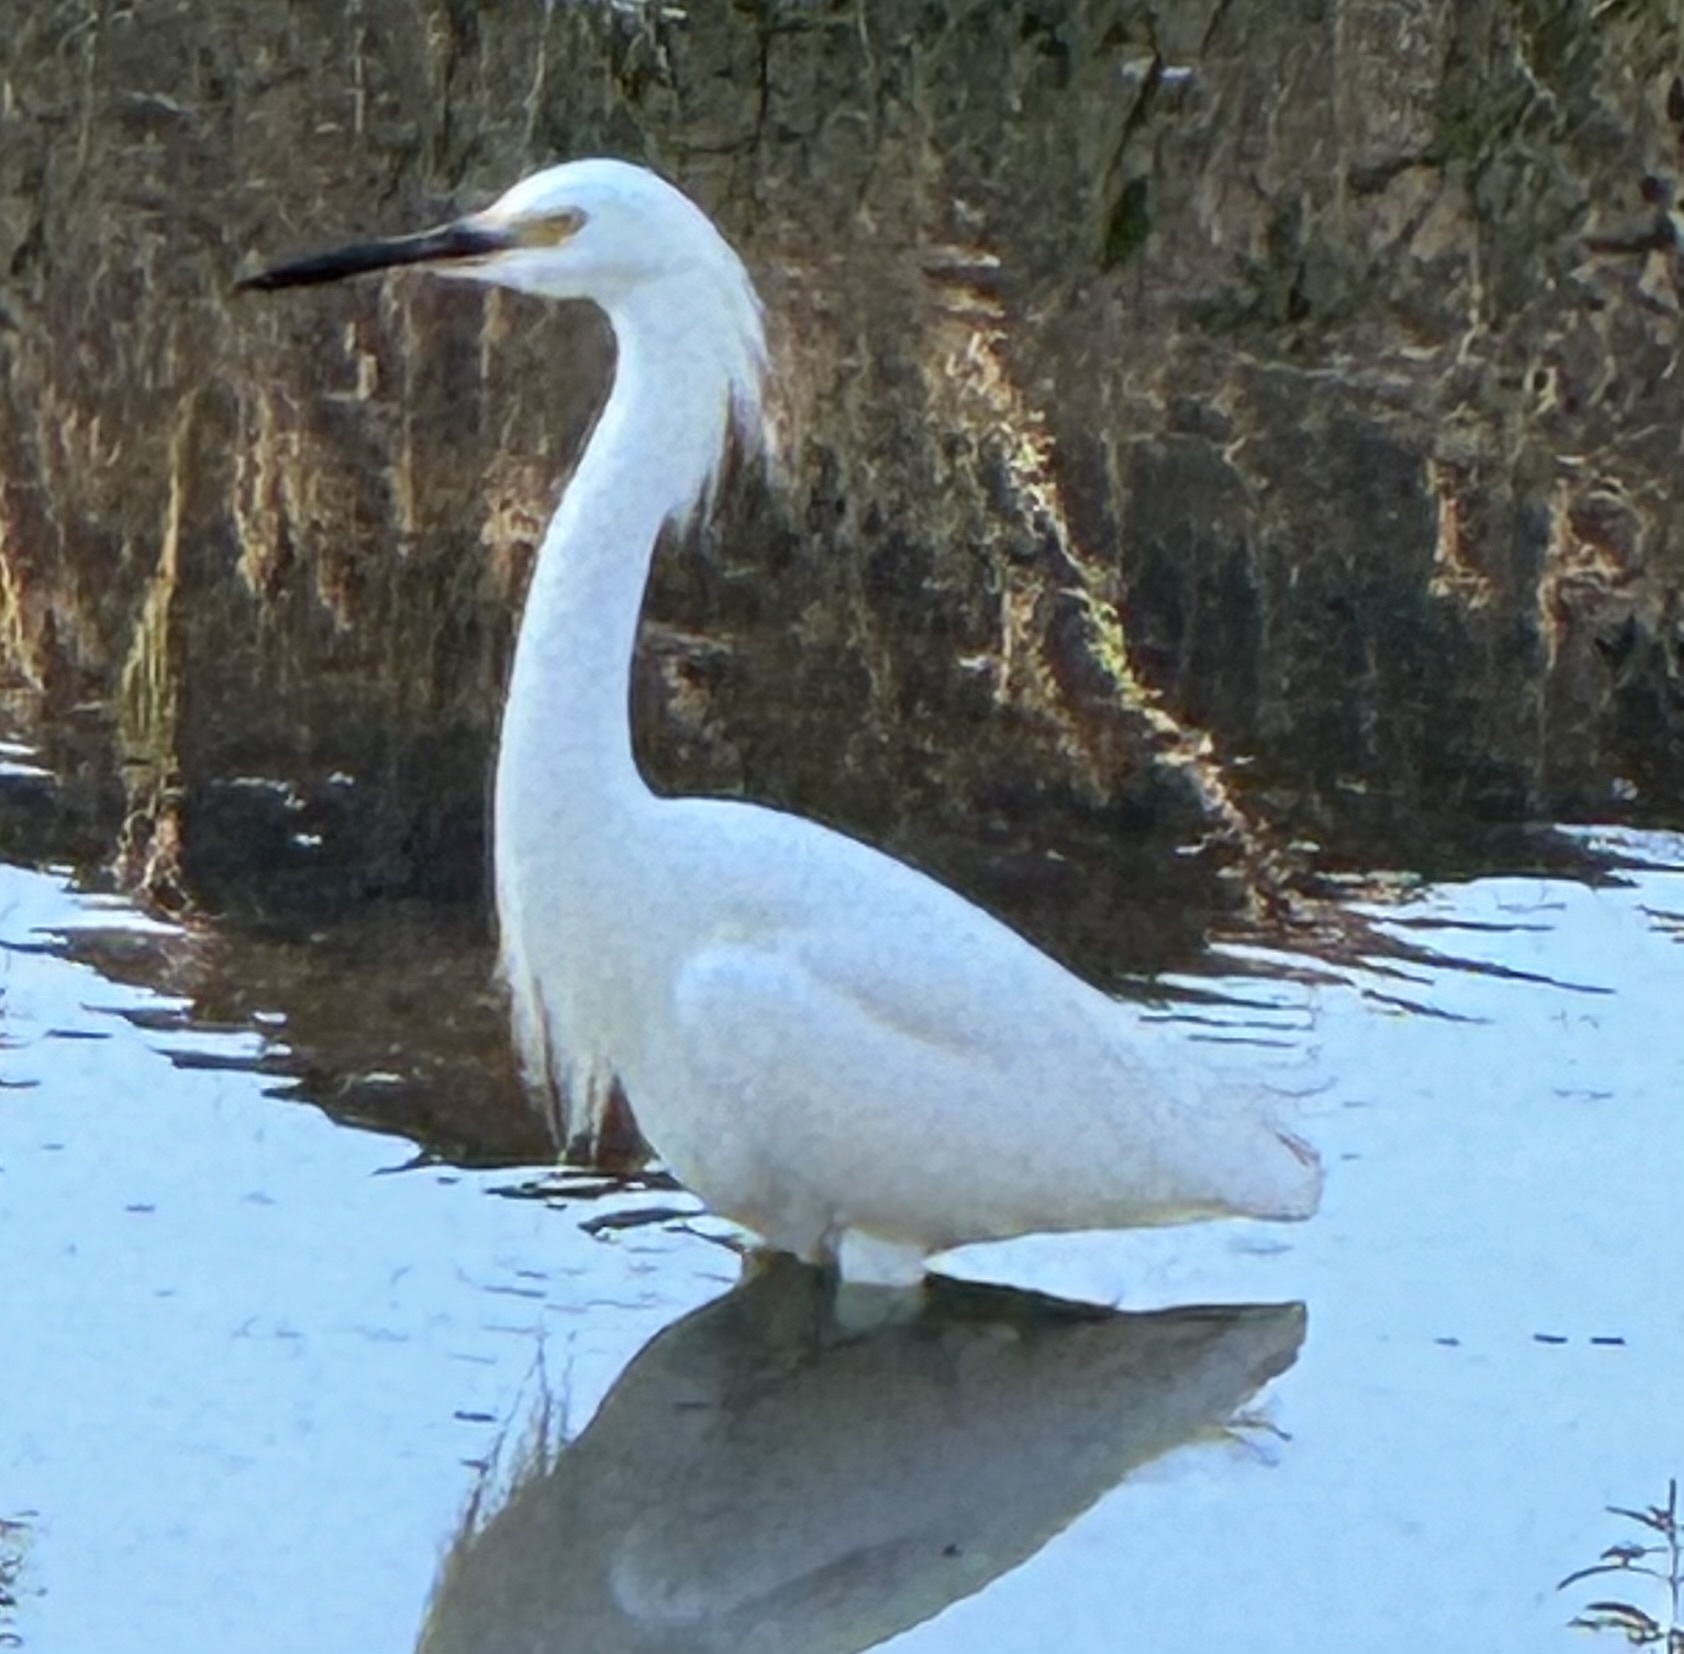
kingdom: Animalia
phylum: Chordata
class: Aves
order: Pelecaniformes
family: Ardeidae
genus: Egretta
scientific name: Egretta thula
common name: Snowy egret
